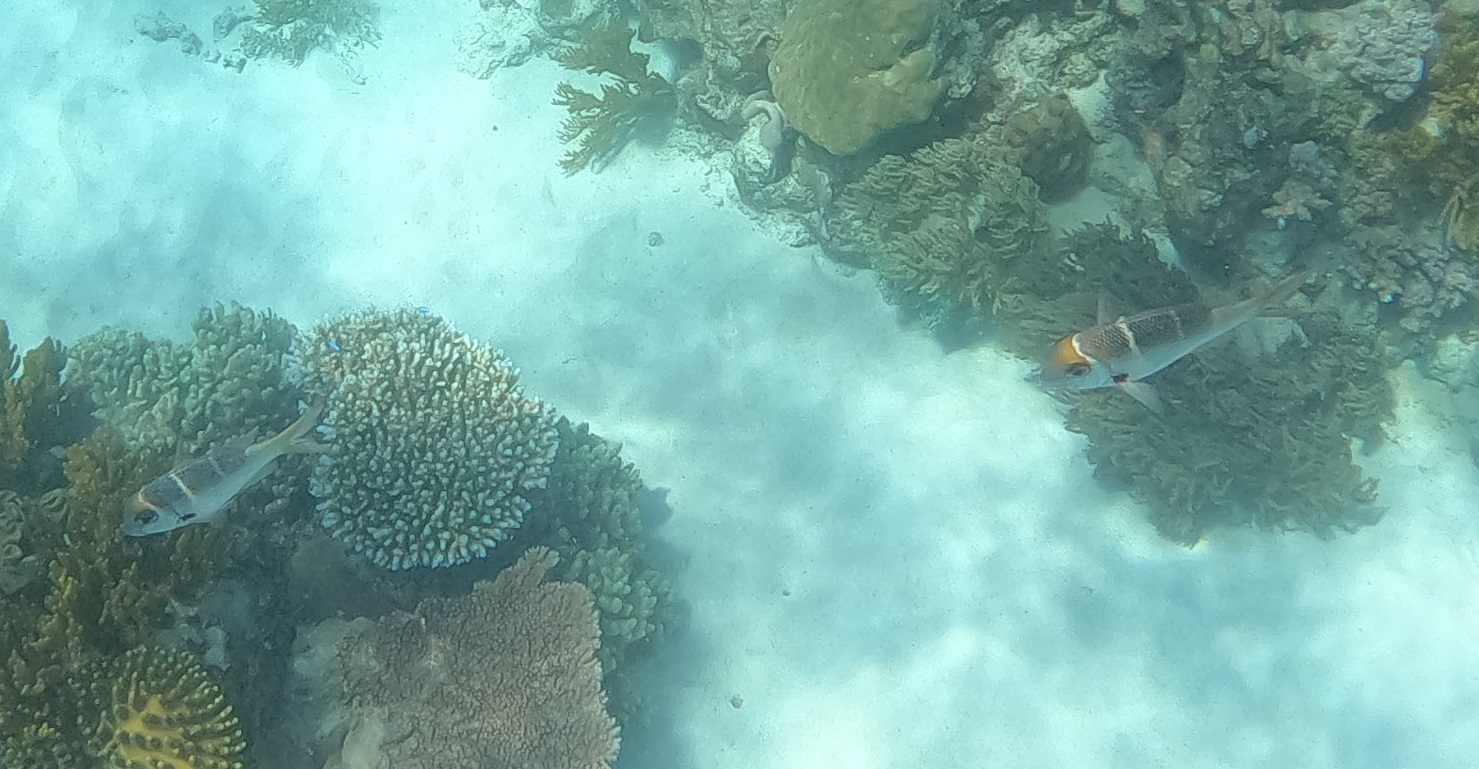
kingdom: Animalia
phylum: Chordata
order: Perciformes
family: Lethrinidae
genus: Monotaxis
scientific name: Monotaxis heterodon
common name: Redfin emperor
